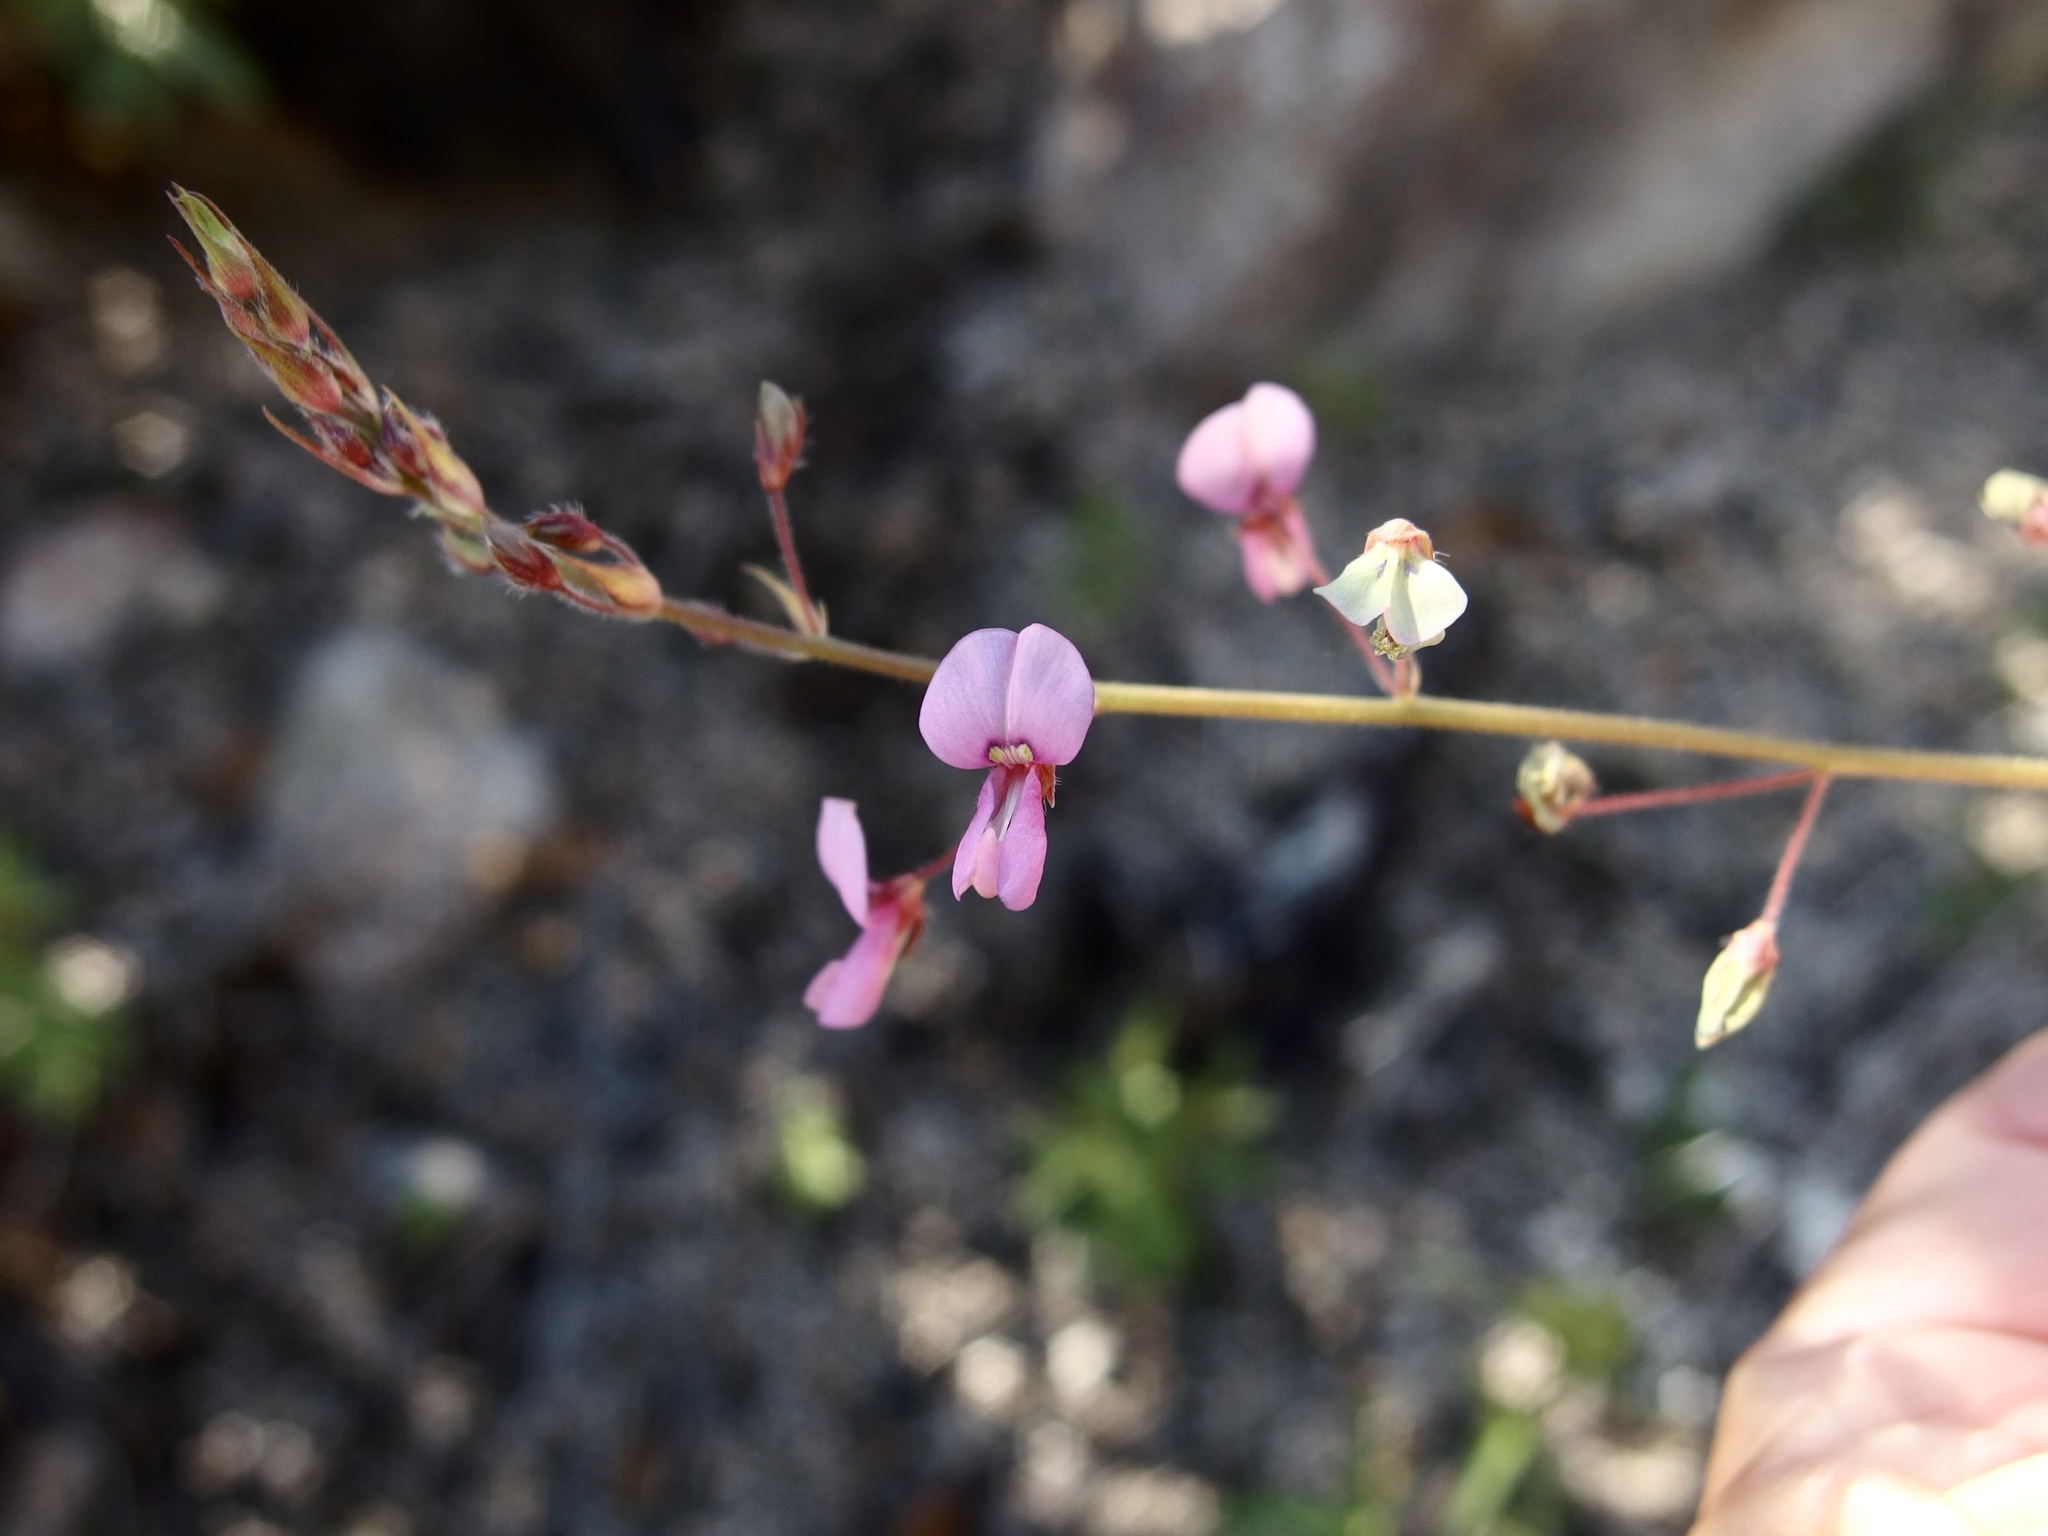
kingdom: Plantae
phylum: Tracheophyta
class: Magnoliopsida
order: Fabales
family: Fabaceae
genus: Desmodium
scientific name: Desmodium arizonicum
